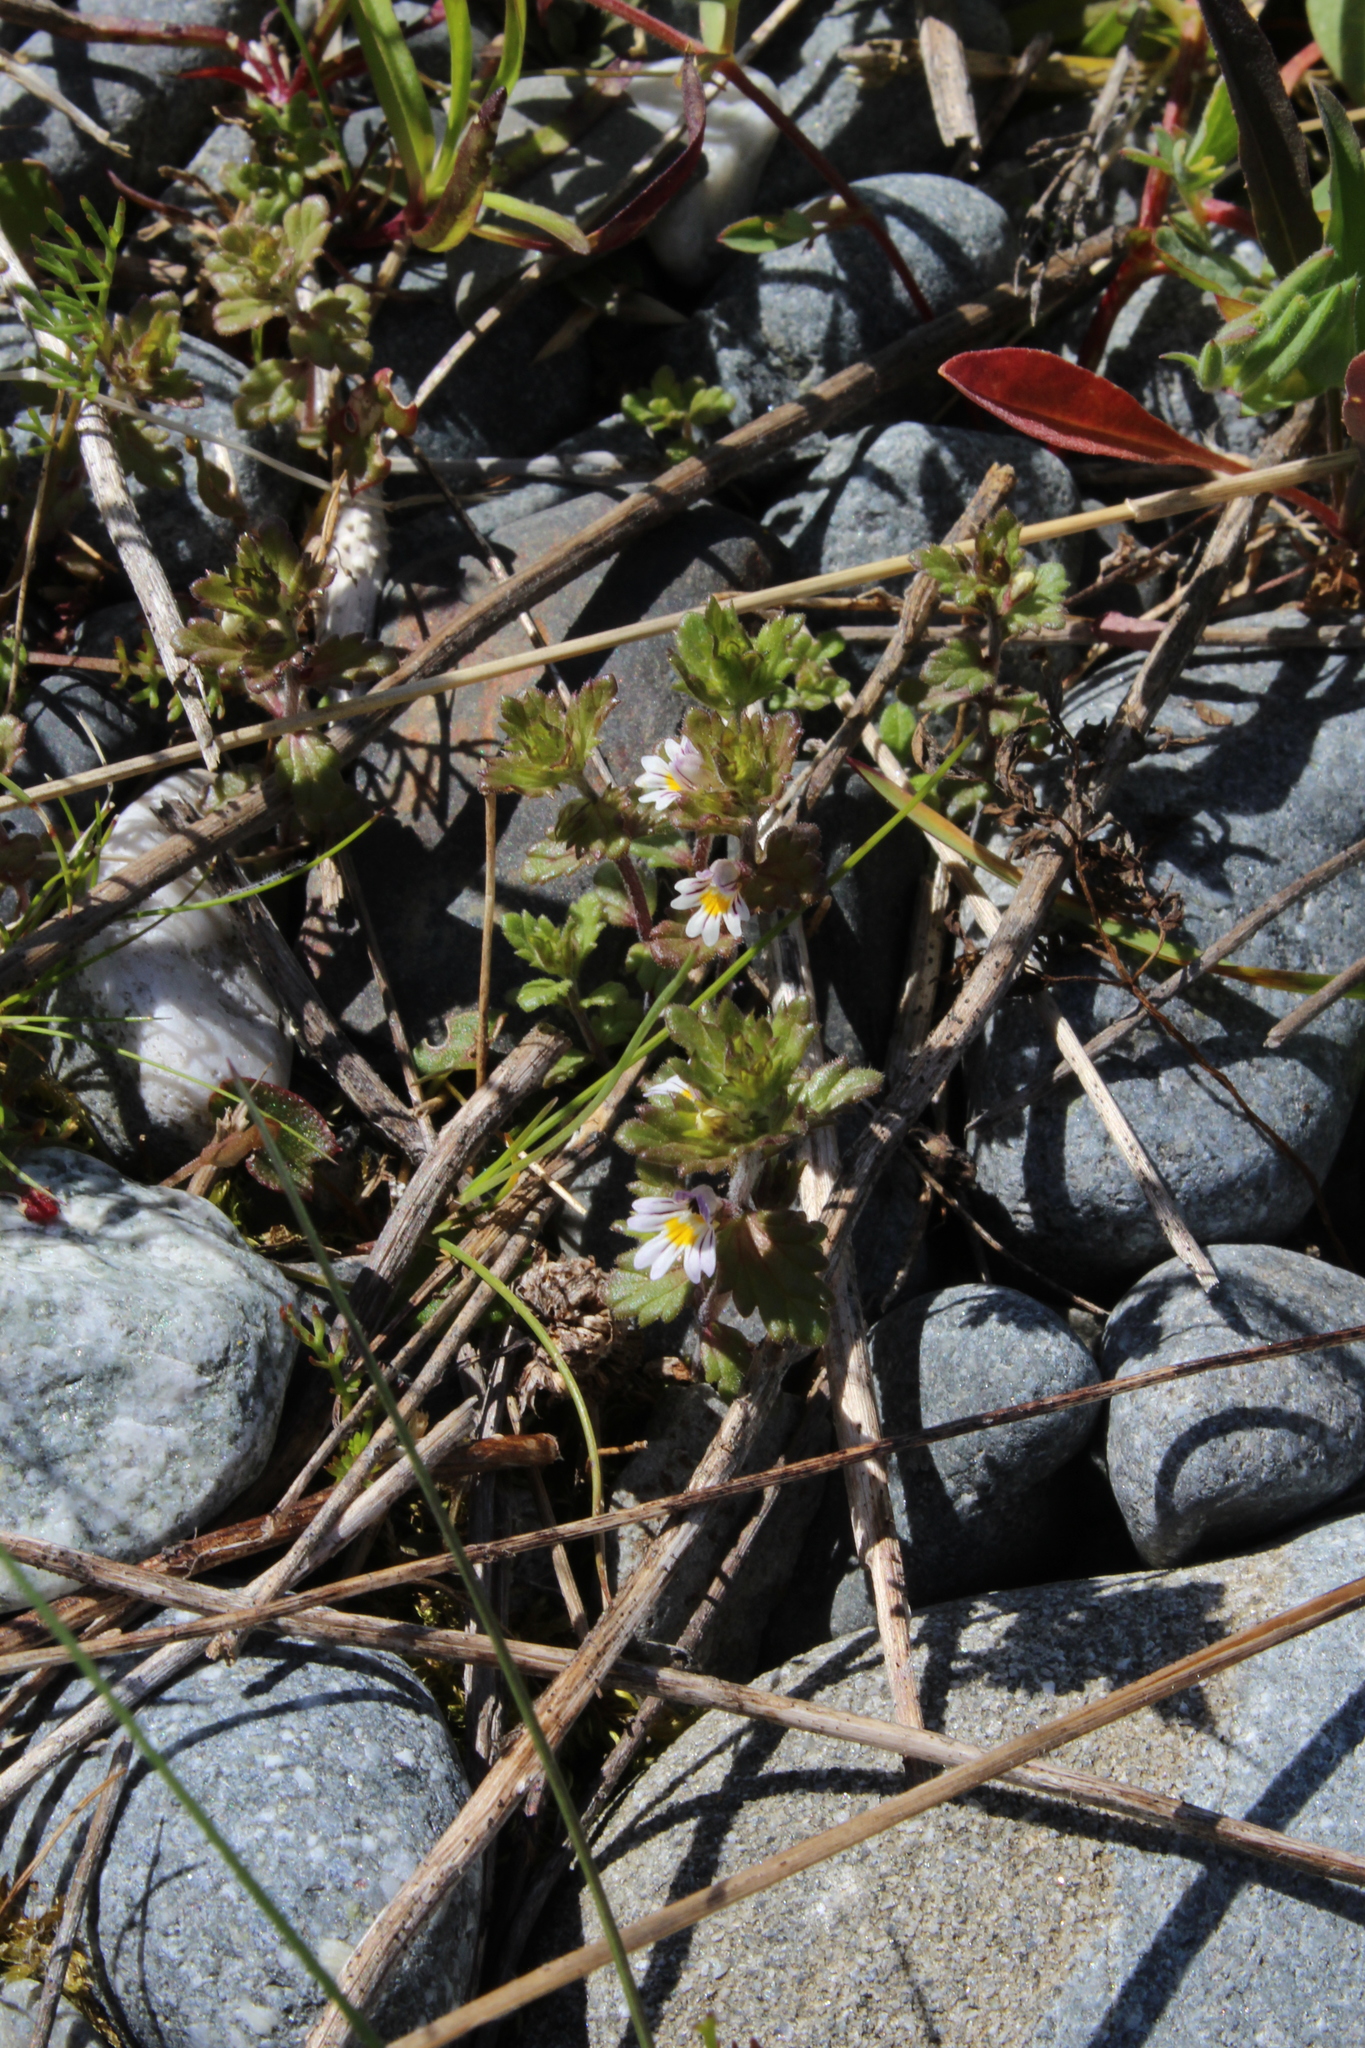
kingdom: Plantae
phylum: Tracheophyta
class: Magnoliopsida
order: Lamiales
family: Orobanchaceae
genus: Euphrasia
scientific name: Euphrasia wettsteinii
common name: Wettstein's eyebright
